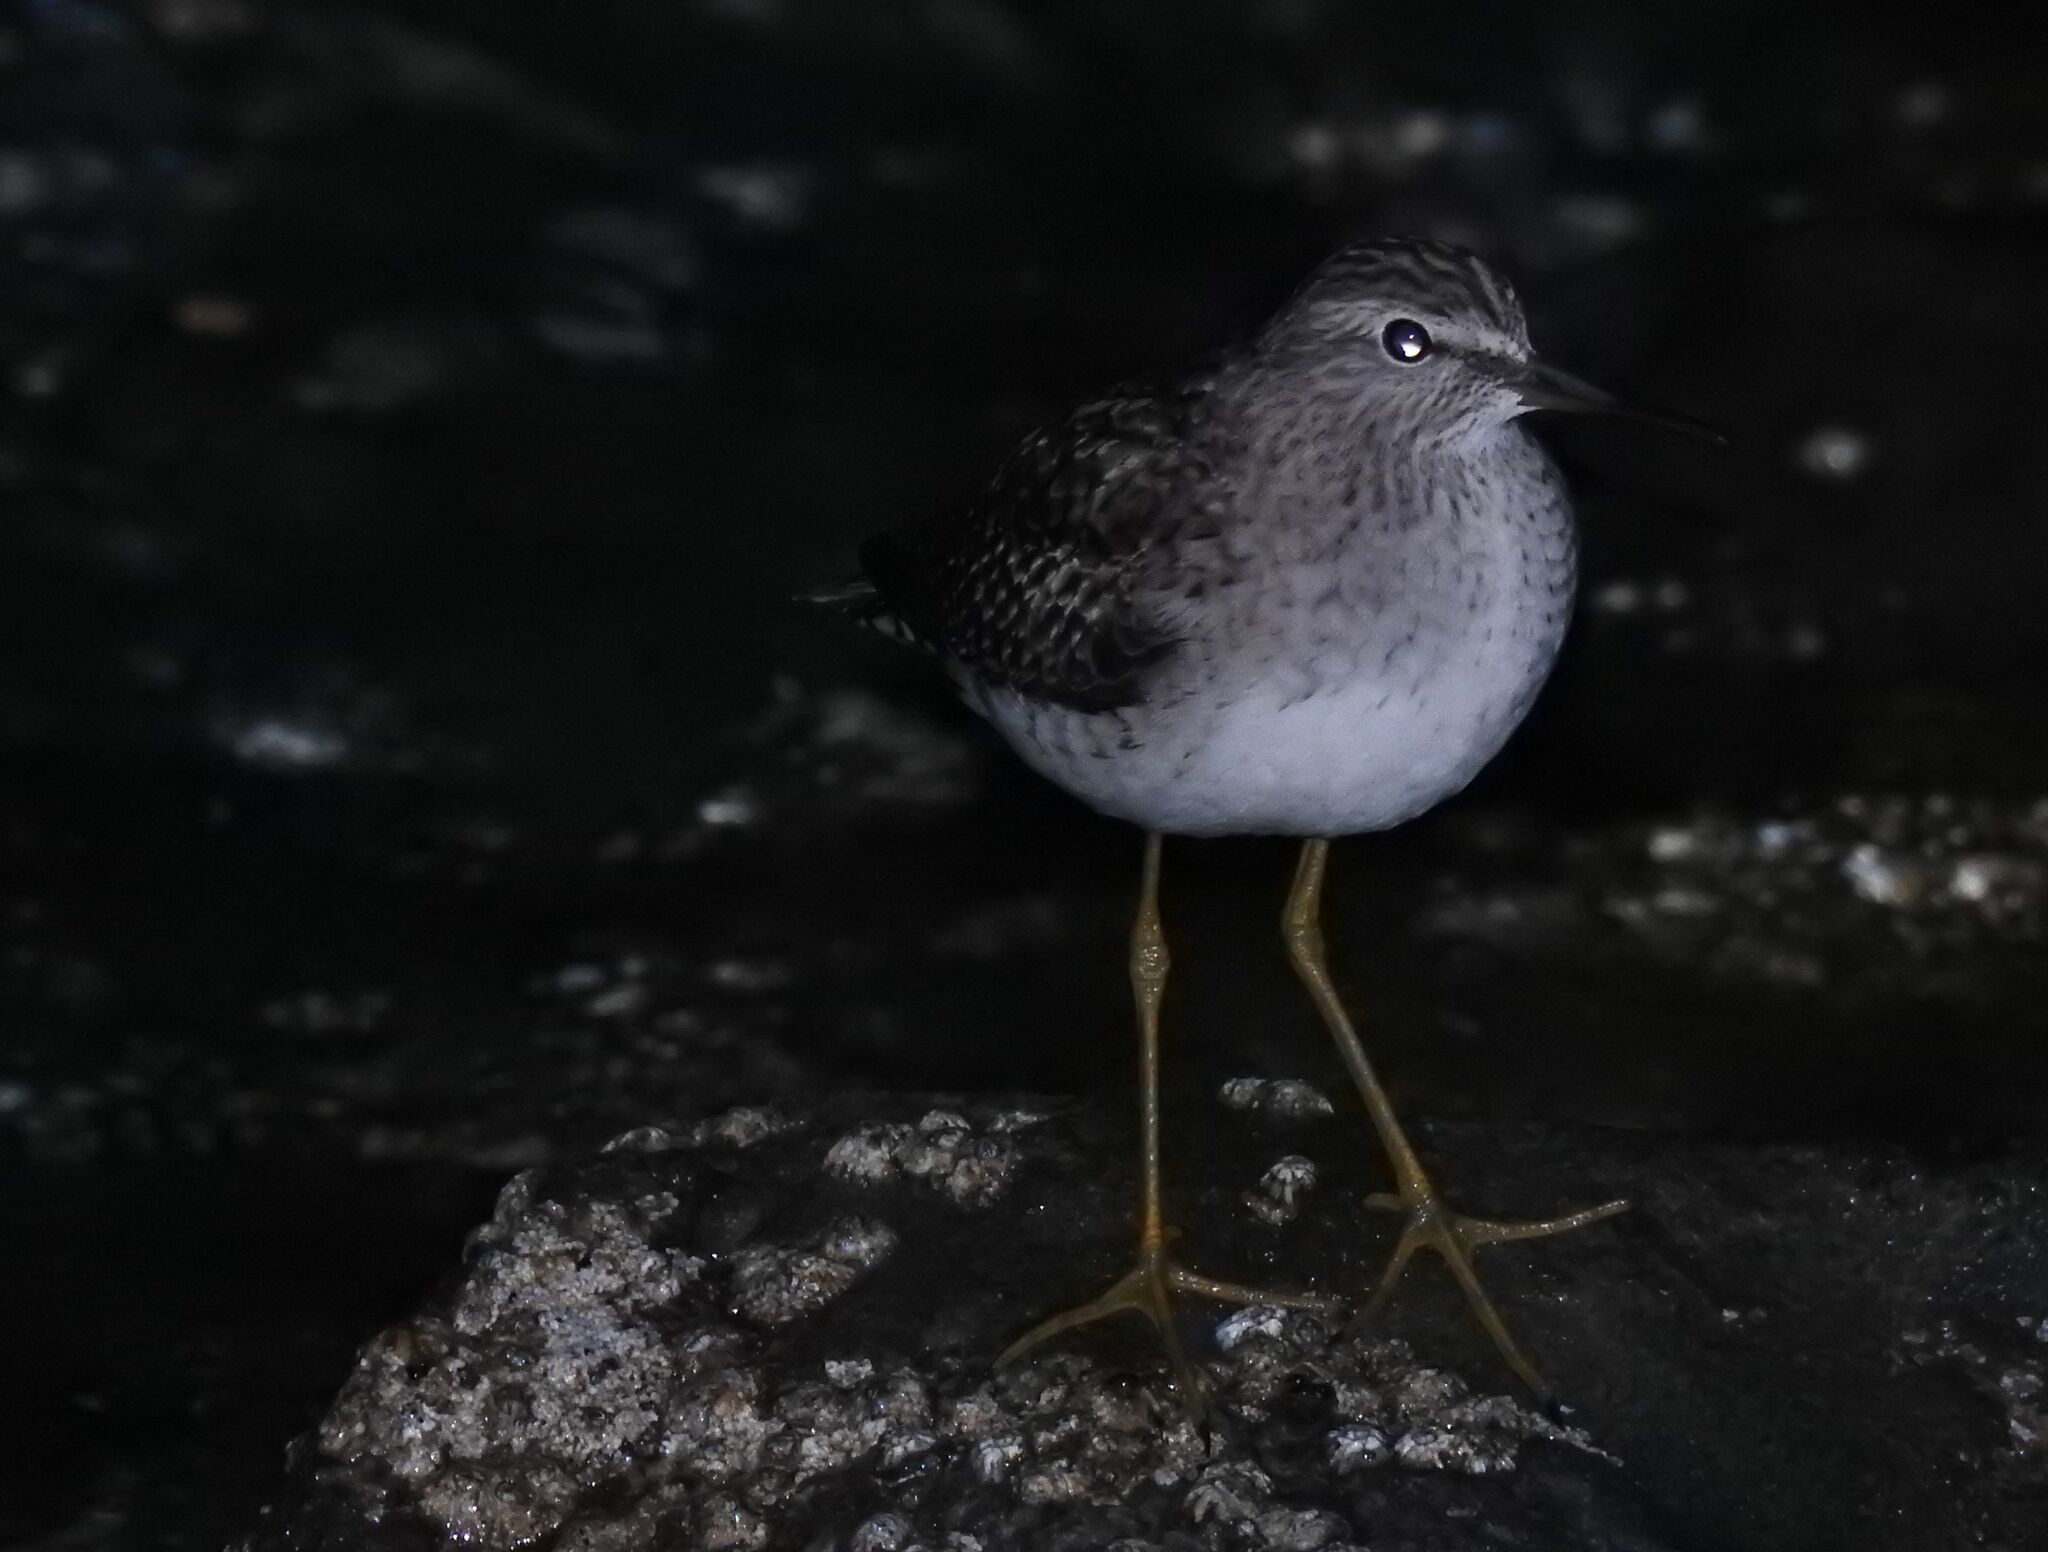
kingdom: Animalia
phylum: Chordata
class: Aves
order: Charadriiformes
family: Scolopacidae
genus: Tringa
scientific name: Tringa glareola
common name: Wood sandpiper
